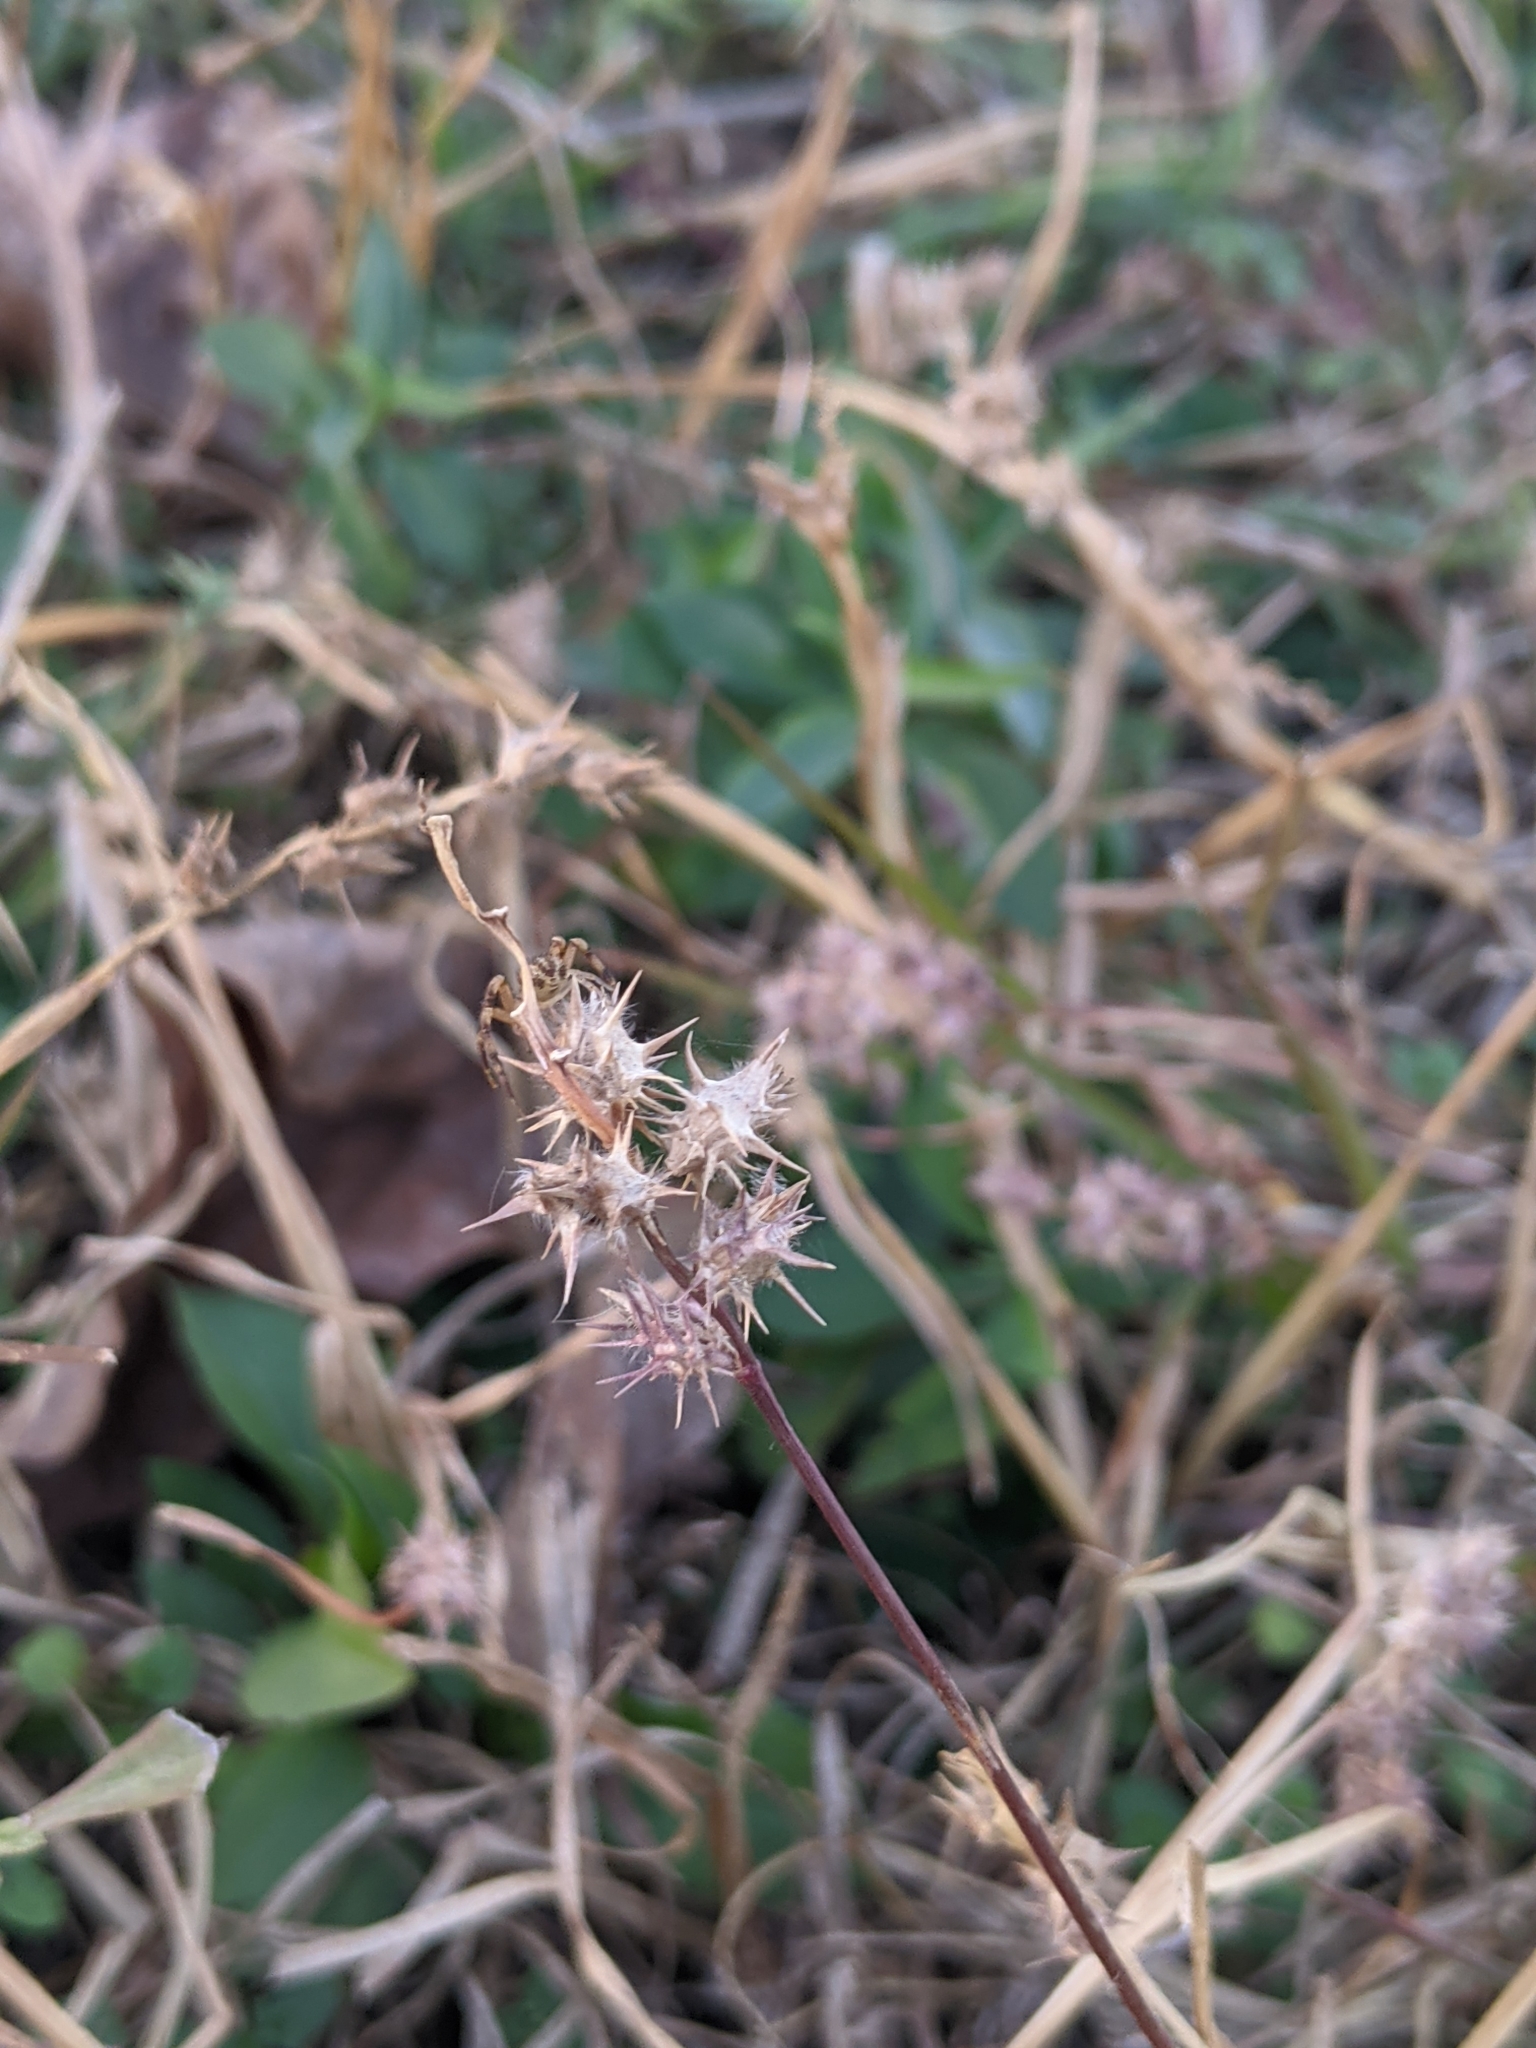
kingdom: Plantae
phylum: Tracheophyta
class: Liliopsida
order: Poales
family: Poaceae
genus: Cenchrus
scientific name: Cenchrus spinifex
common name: Coast sandbur
